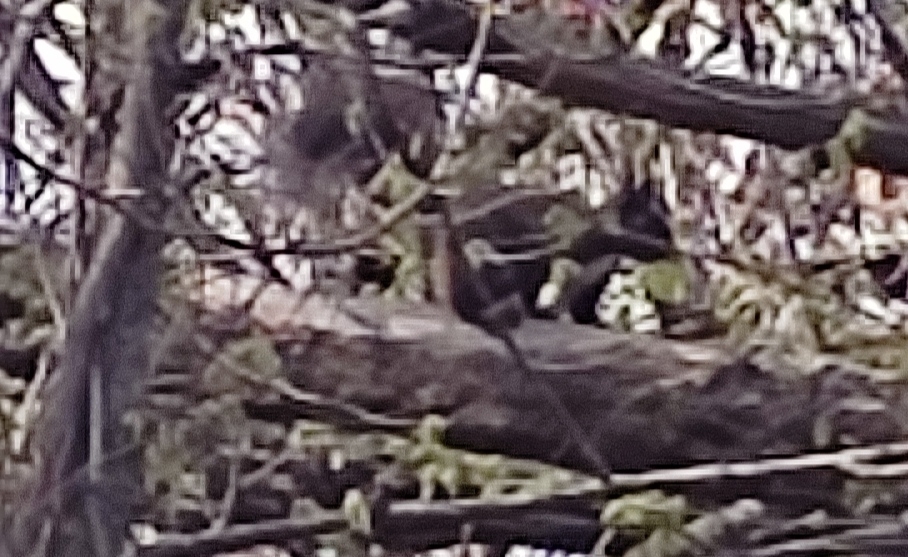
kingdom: Animalia
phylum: Chordata
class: Mammalia
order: Rodentia
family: Sciuridae
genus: Sciurus
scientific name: Sciurus vulgaris
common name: Eurasian red squirrel
